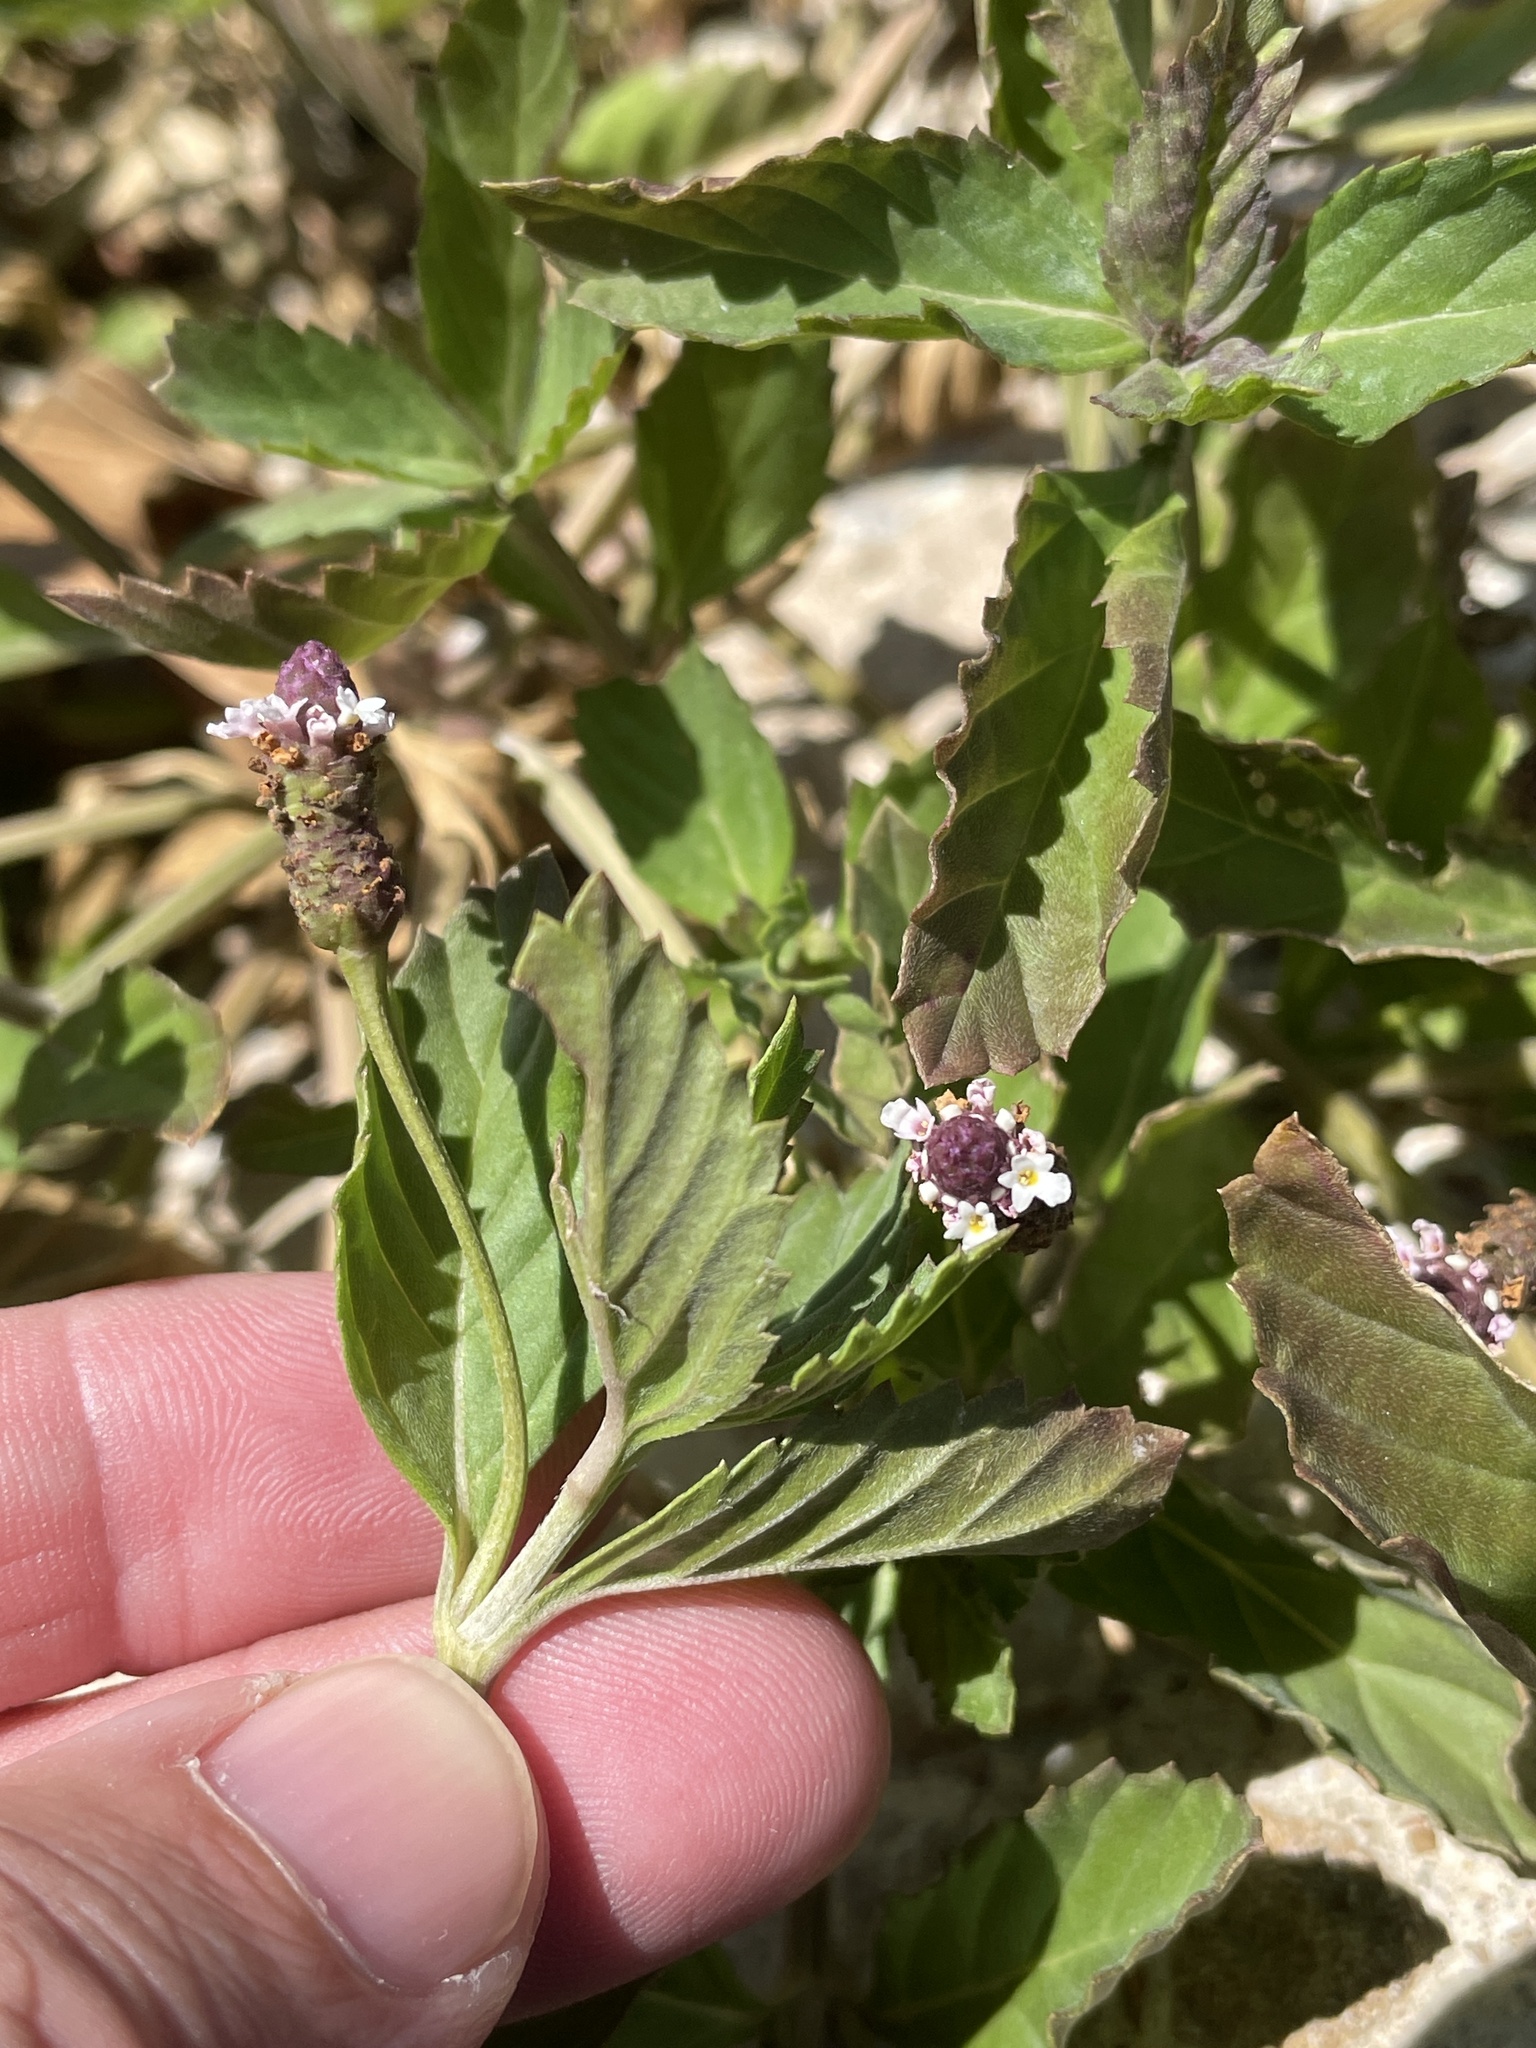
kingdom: Plantae
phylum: Tracheophyta
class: Magnoliopsida
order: Lamiales
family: Verbenaceae
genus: Phyla
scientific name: Phyla lanceolata
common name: Northern fogfruit
